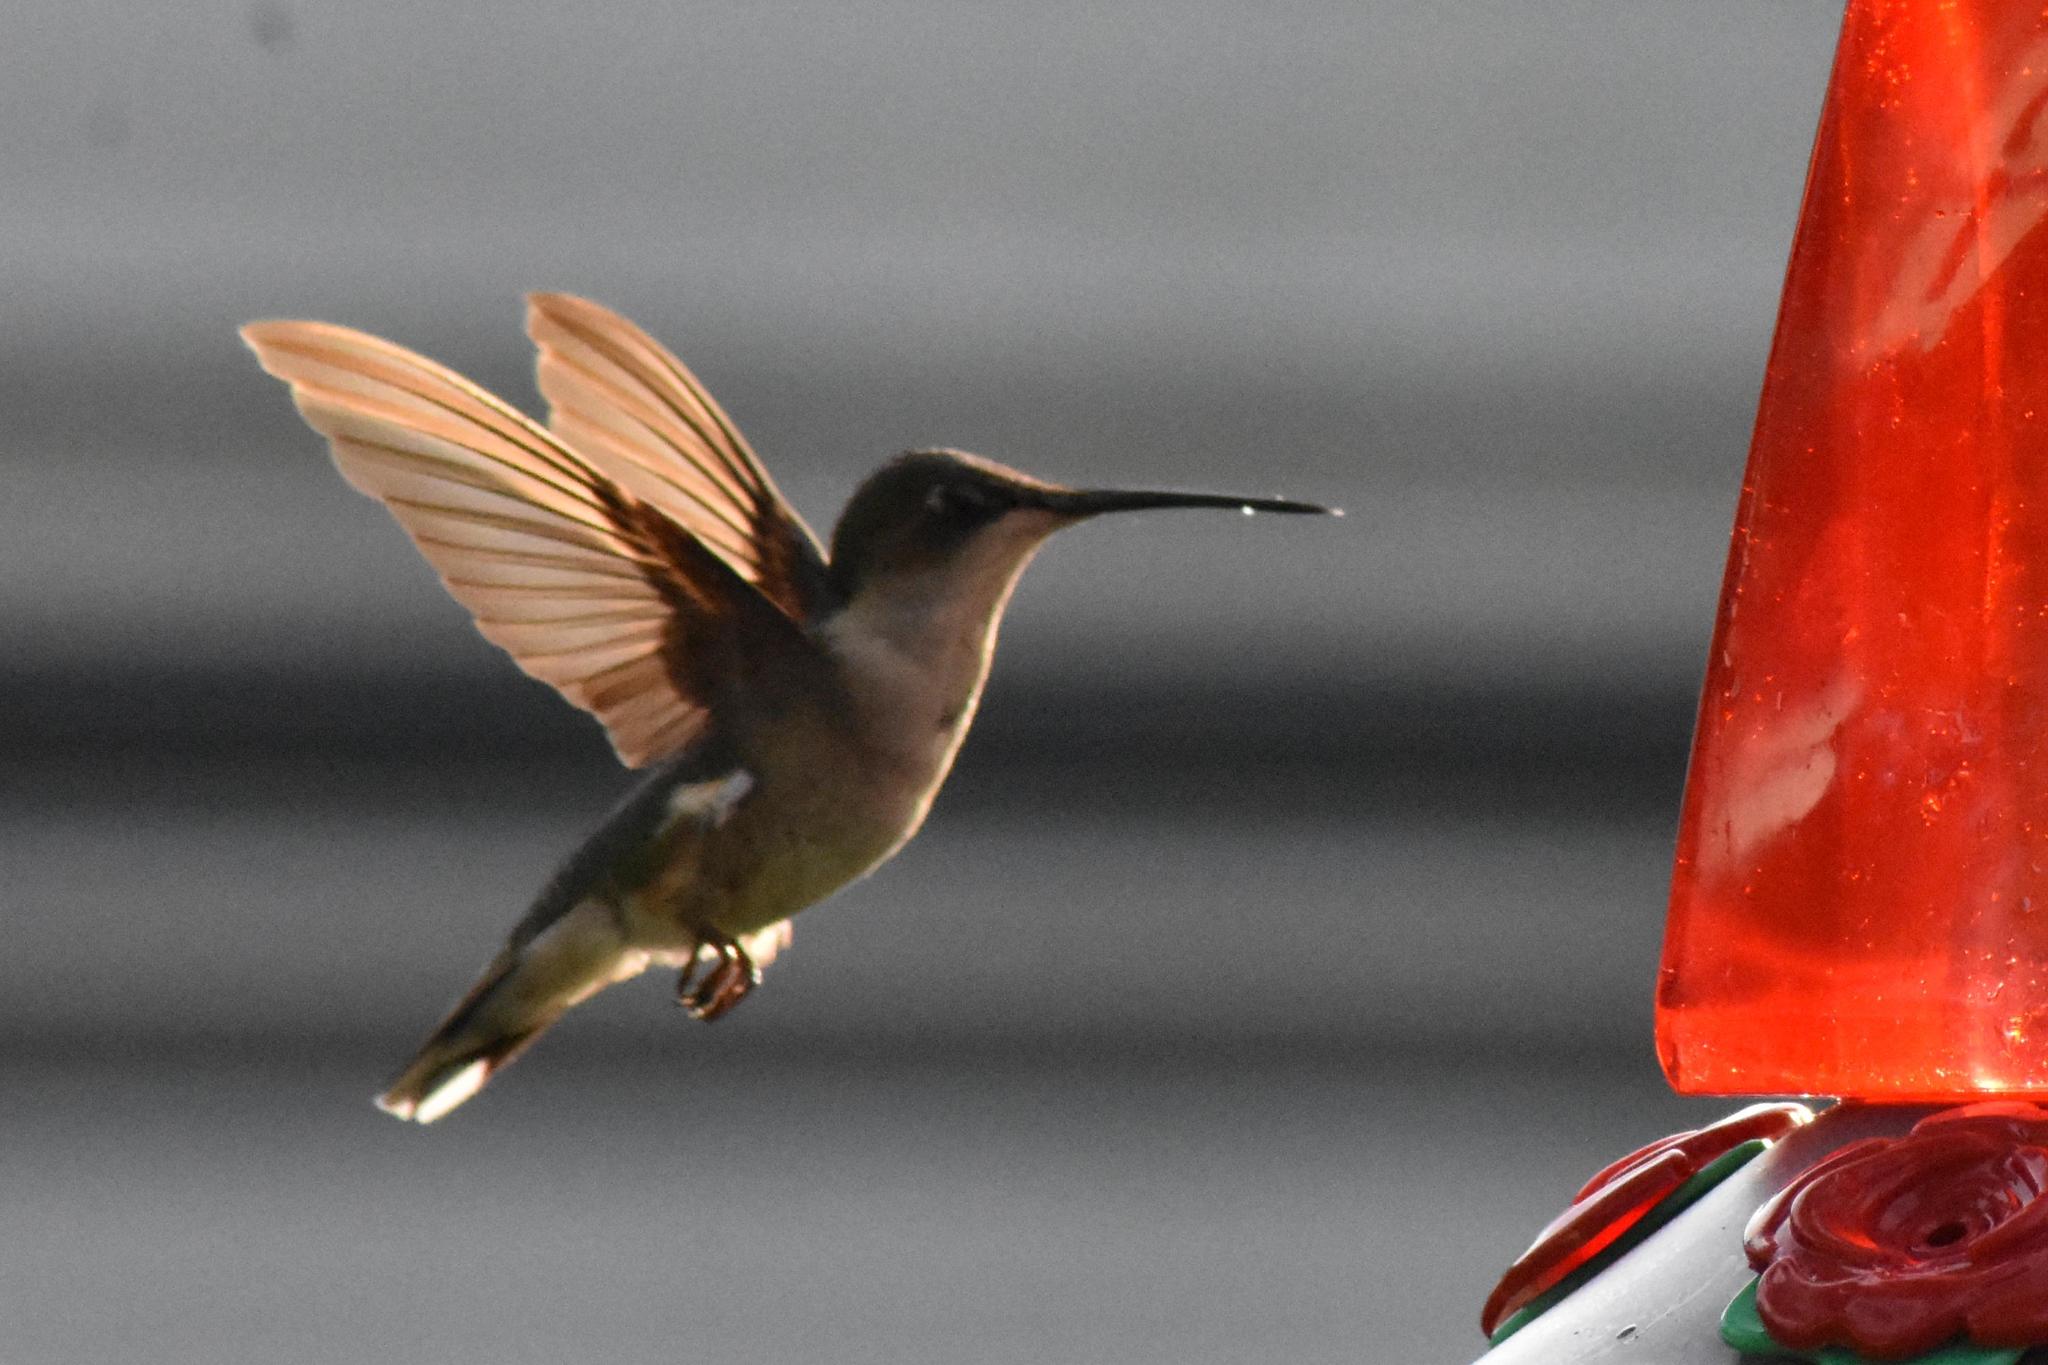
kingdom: Animalia
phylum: Chordata
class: Aves
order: Apodiformes
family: Trochilidae
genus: Archilochus
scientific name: Archilochus colubris
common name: Ruby-throated hummingbird
